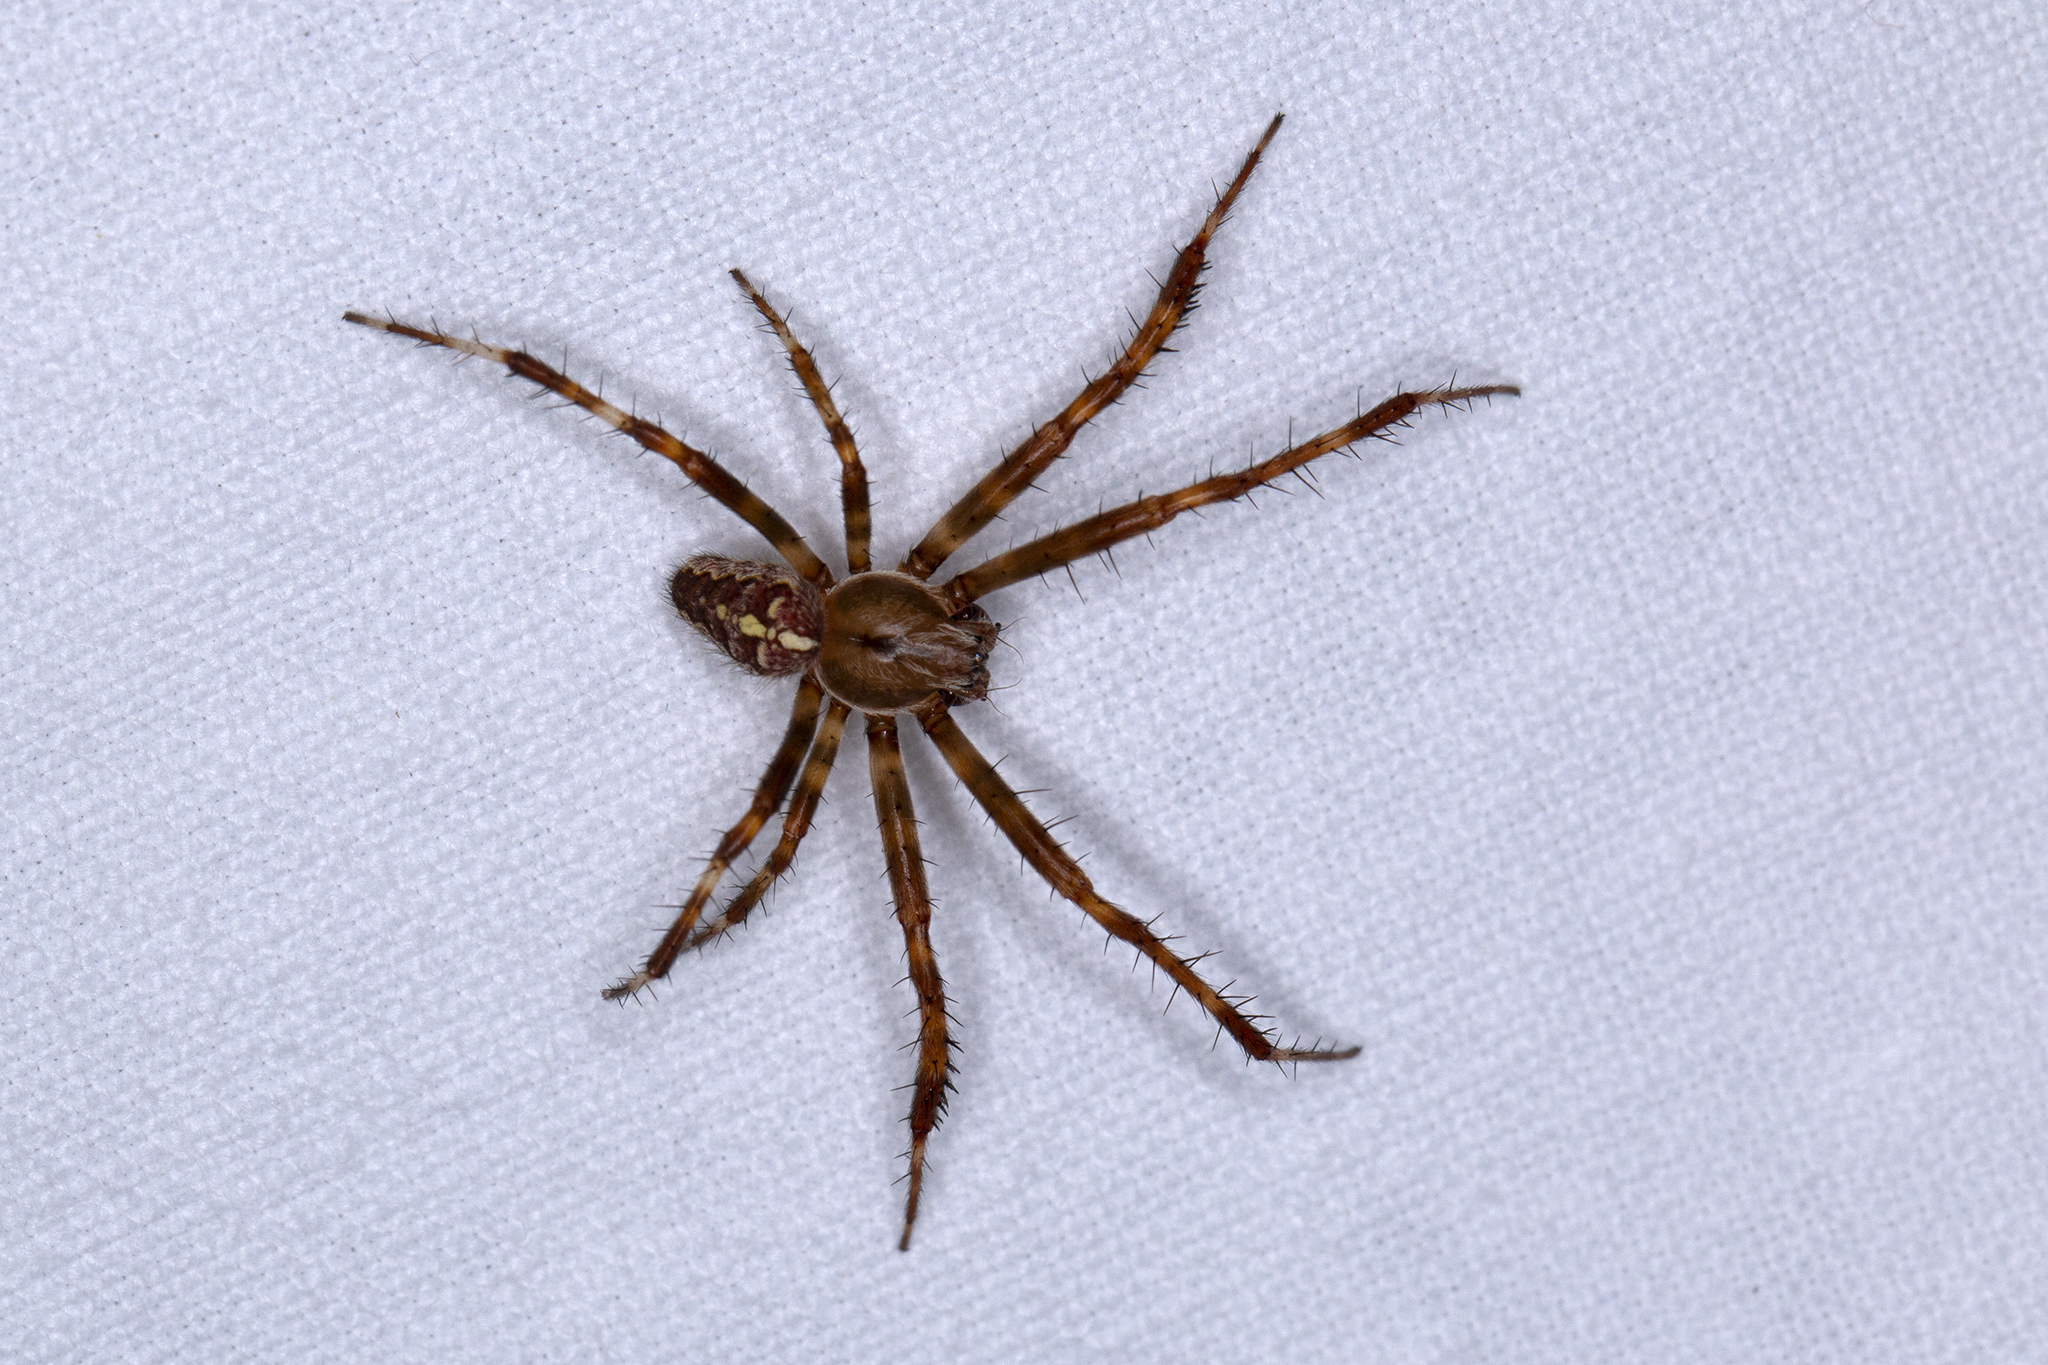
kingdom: Animalia
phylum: Arthropoda
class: Arachnida
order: Araneae
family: Araneidae
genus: Araneus
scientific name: Araneus diadematus
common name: Cross orbweaver
